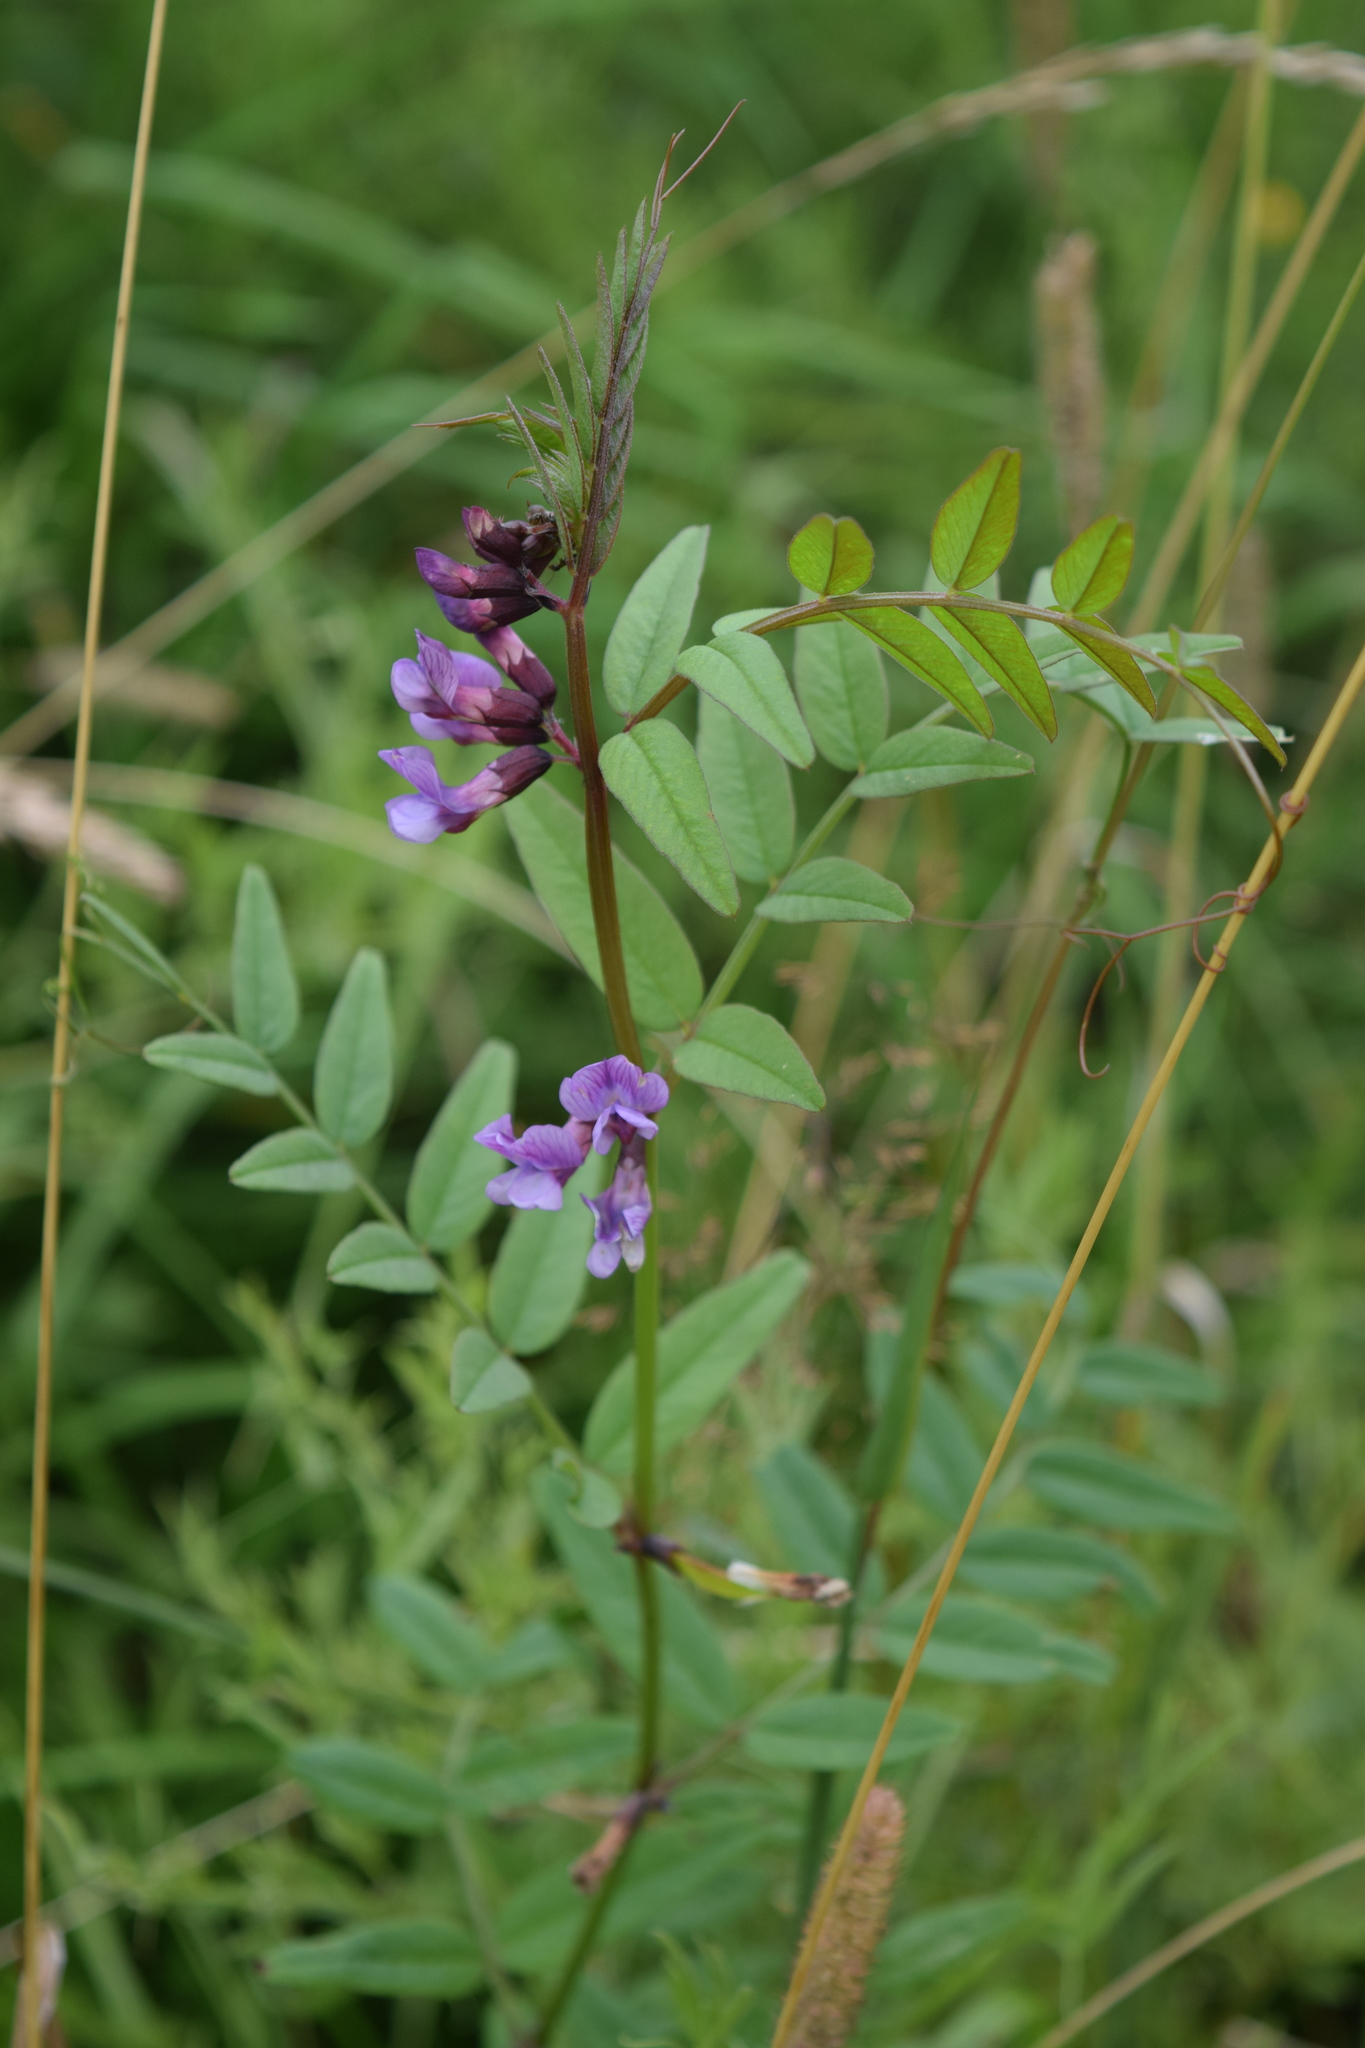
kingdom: Plantae
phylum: Tracheophyta
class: Magnoliopsida
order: Fabales
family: Fabaceae
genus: Vicia
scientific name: Vicia sepium
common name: Bush vetch
